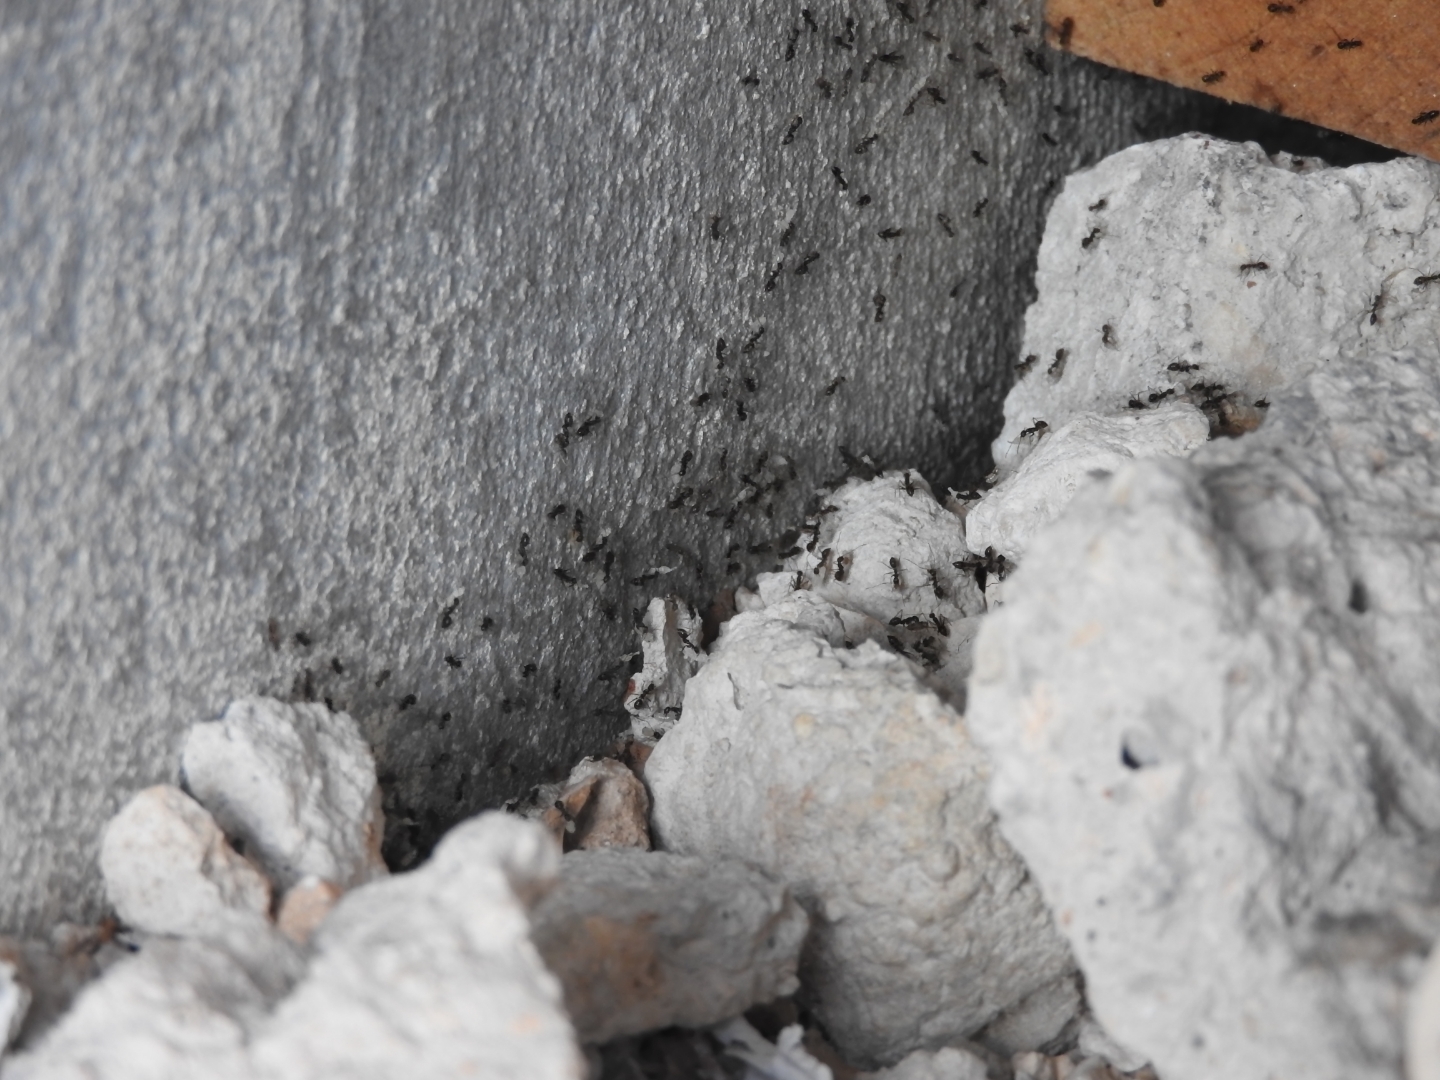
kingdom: Animalia
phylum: Arthropoda
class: Insecta
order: Hymenoptera
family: Formicidae
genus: Paratrechina
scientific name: Paratrechina longicornis
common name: Longhorned crazy ant
